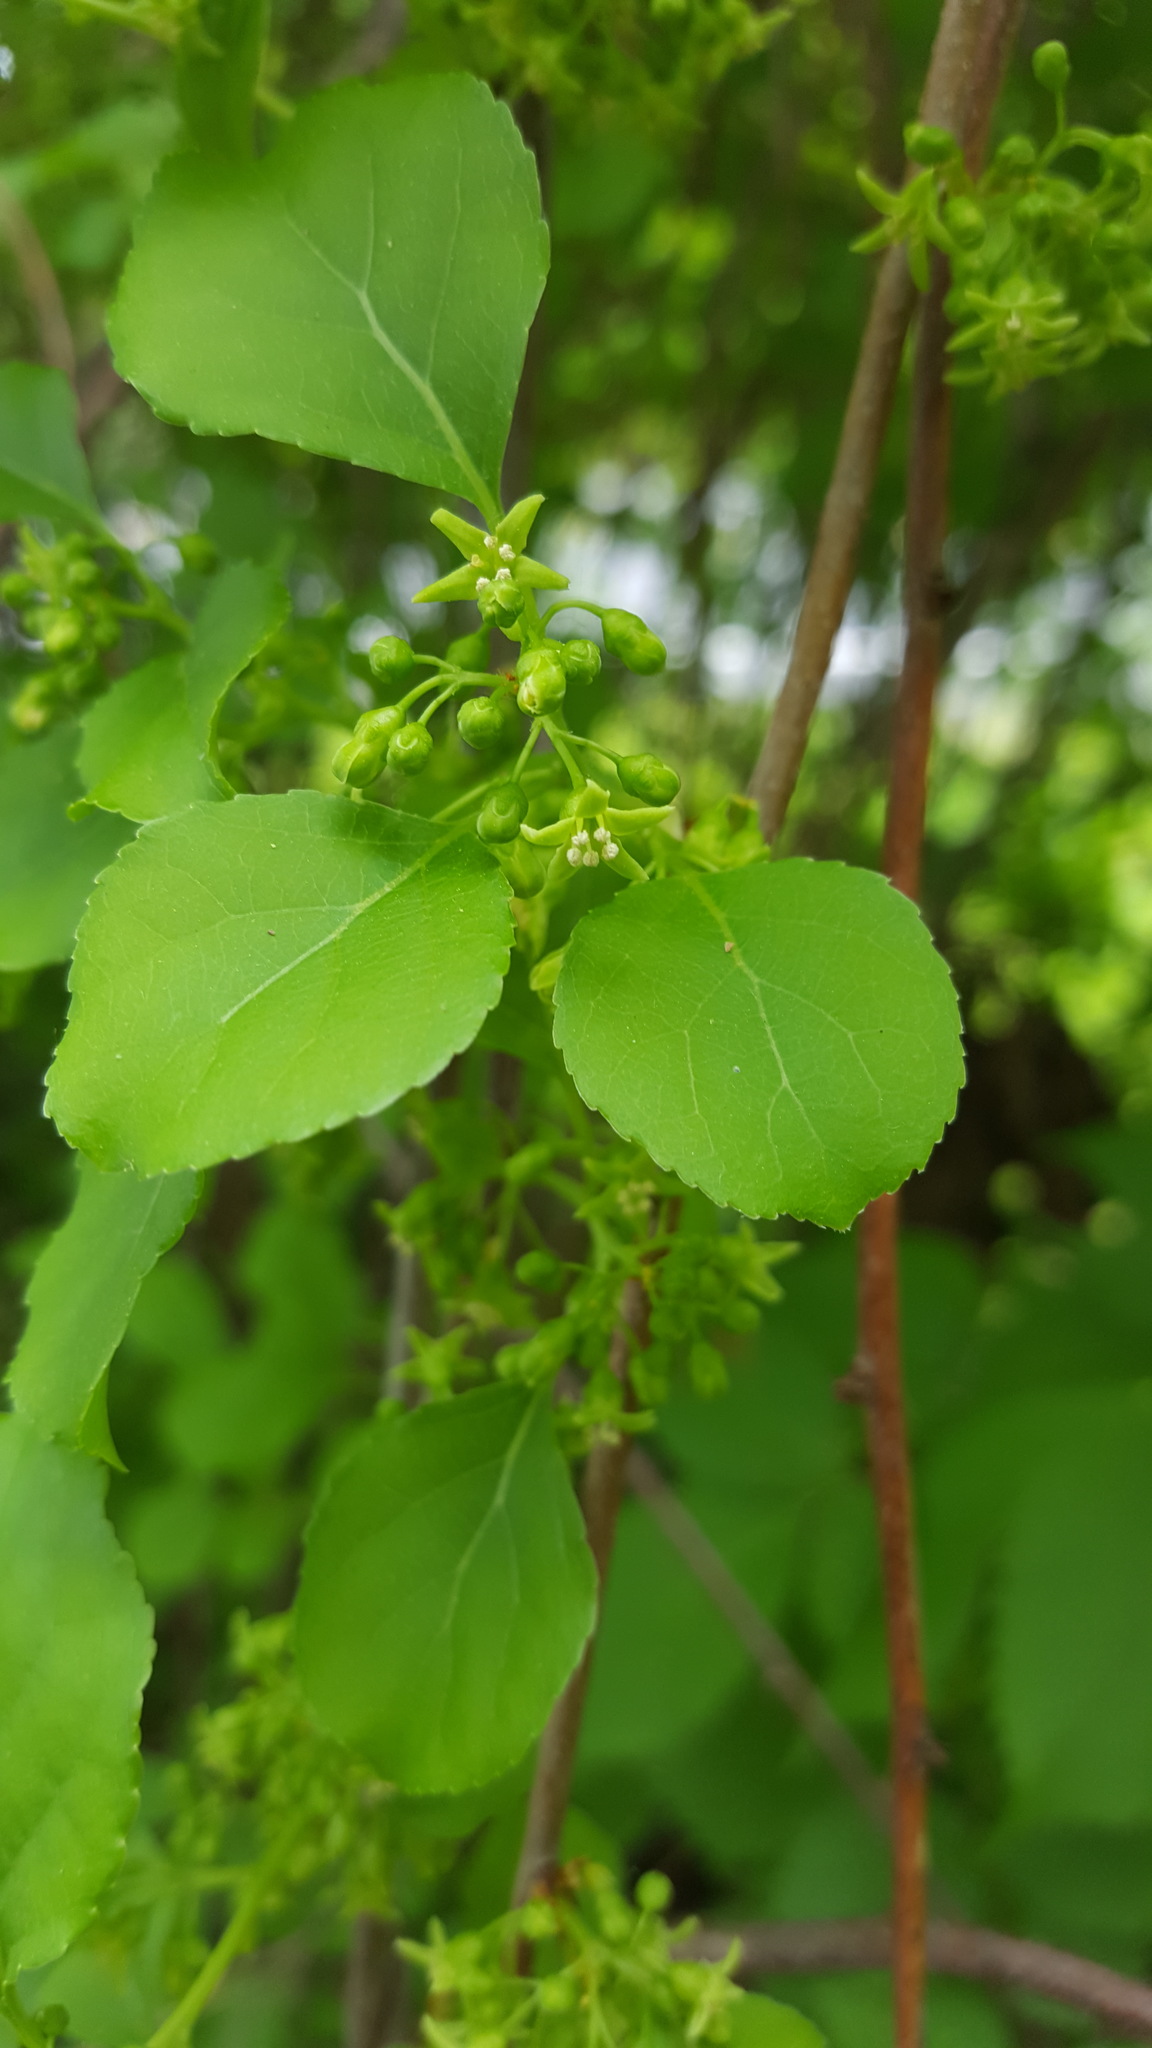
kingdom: Plantae
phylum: Tracheophyta
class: Magnoliopsida
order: Celastrales
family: Celastraceae
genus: Celastrus
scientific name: Celastrus orbiculatus
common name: Oriental bittersweet
